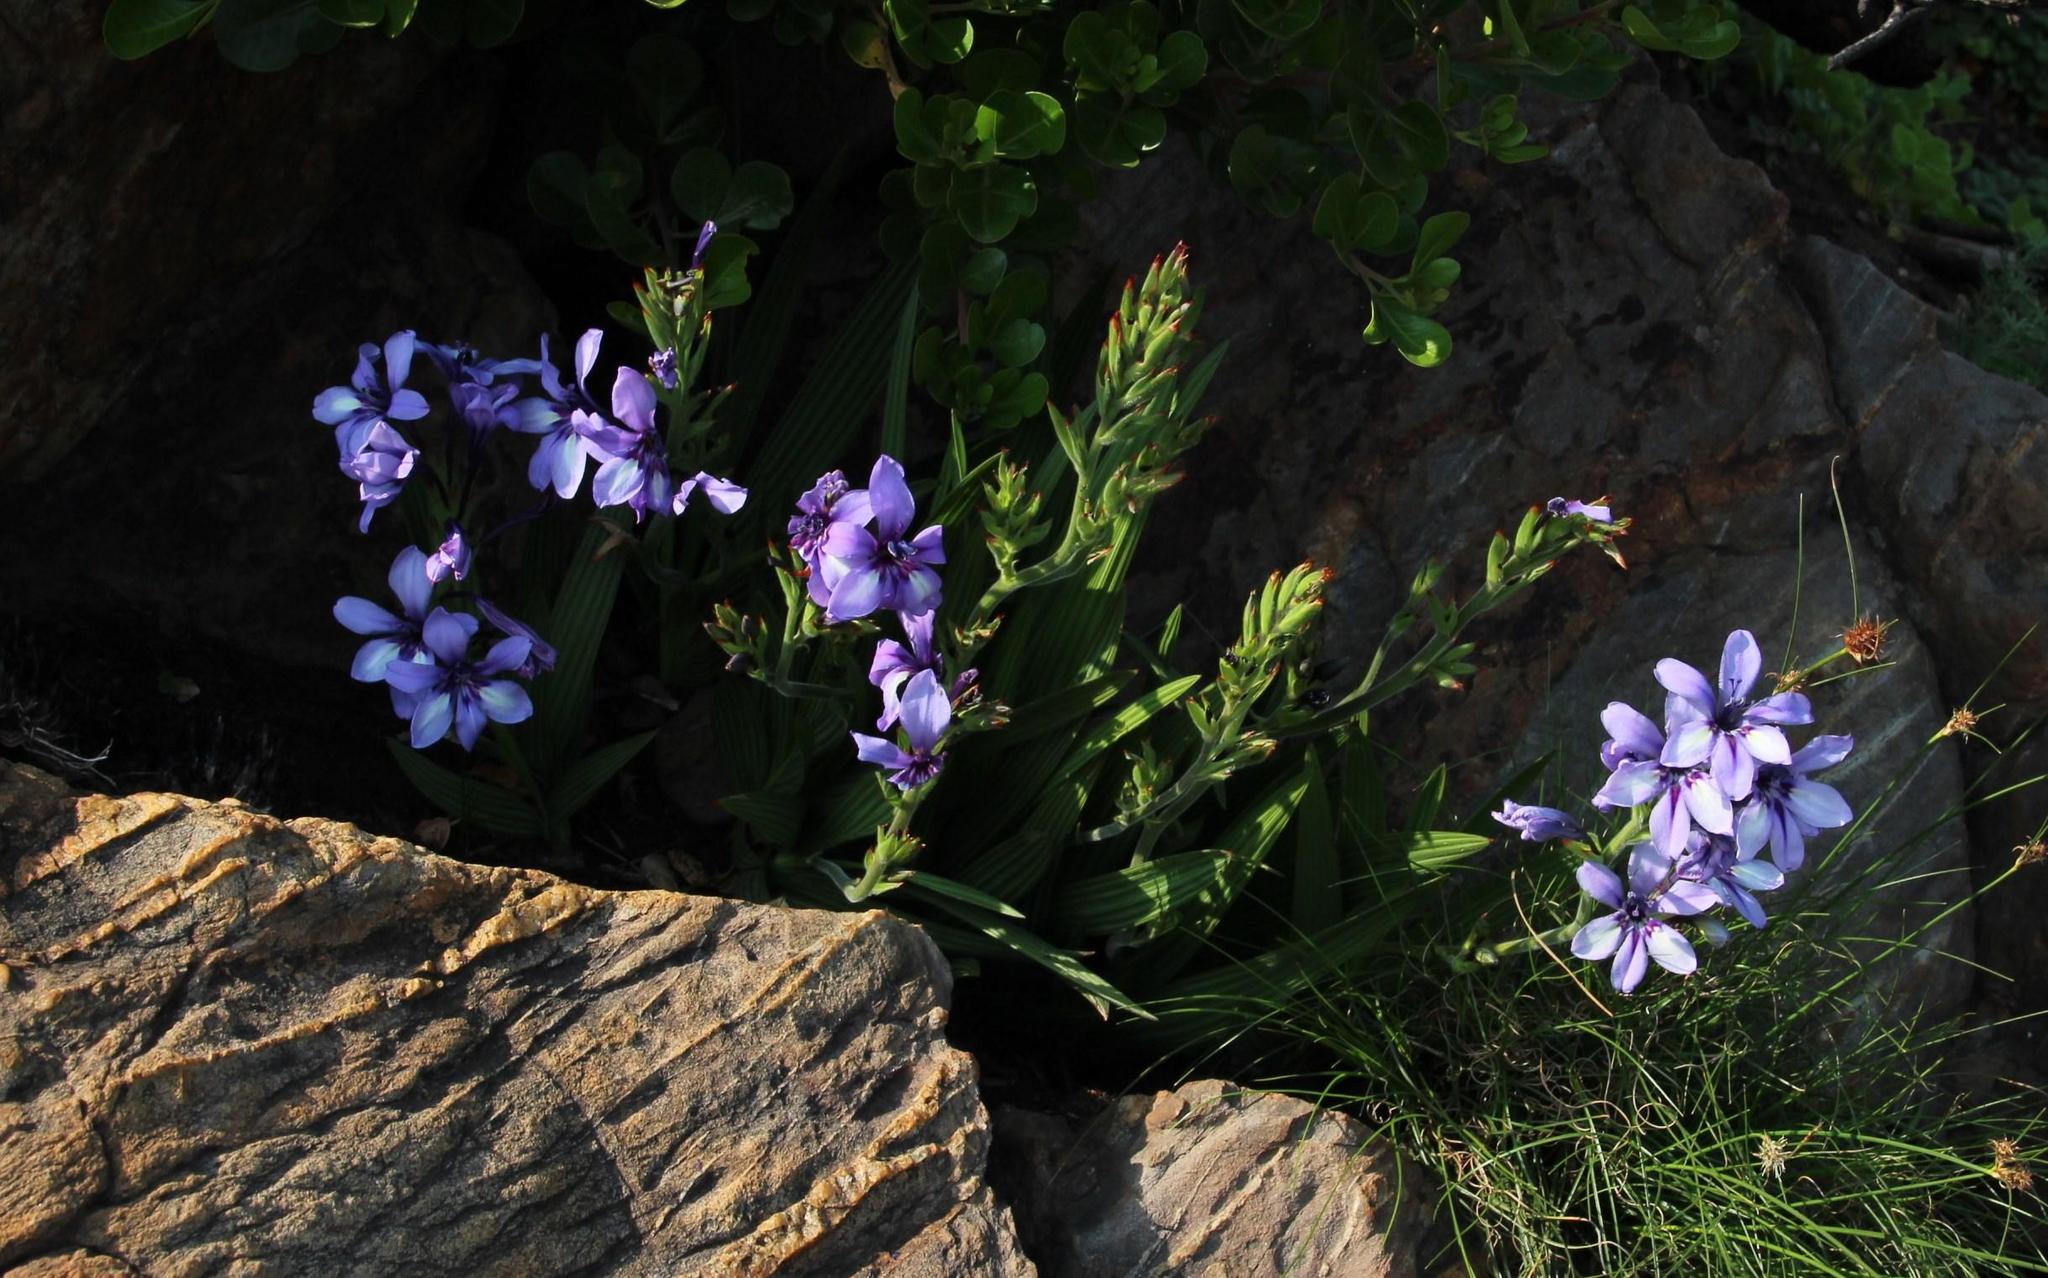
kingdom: Plantae
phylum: Tracheophyta
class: Liliopsida
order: Asparagales
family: Iridaceae
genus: Babiana
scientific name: Babiana fragrans
